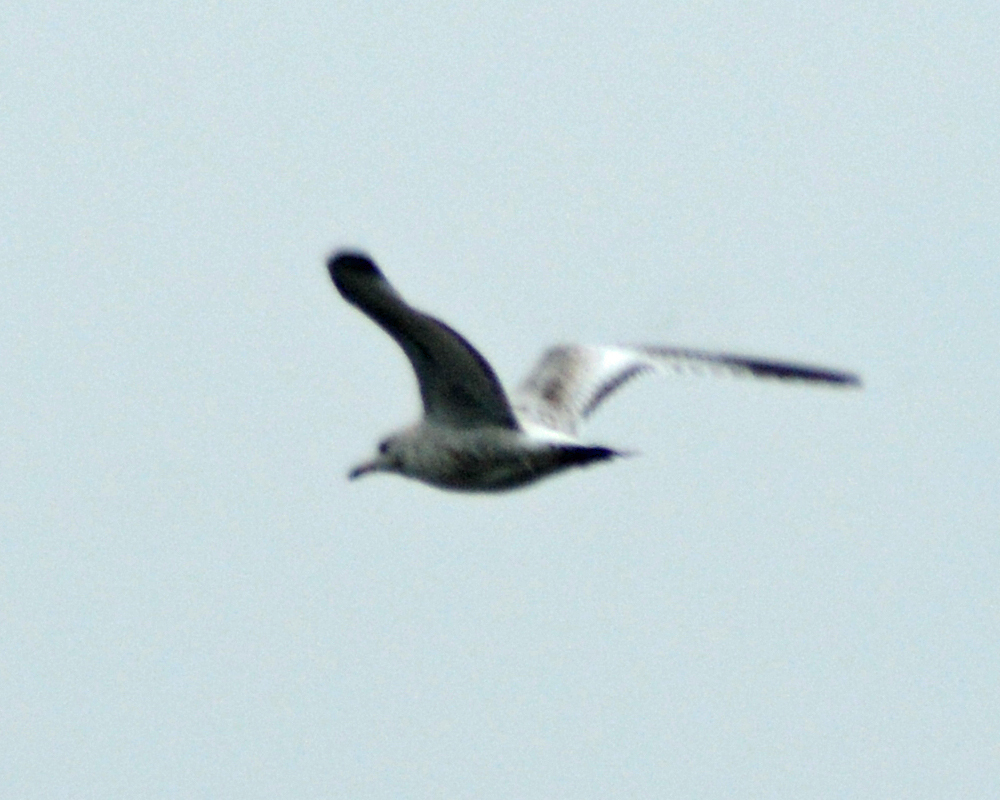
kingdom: Animalia
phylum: Chordata
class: Aves
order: Charadriiformes
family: Laridae
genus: Larus
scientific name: Larus delawarensis
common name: Ring-billed gull
